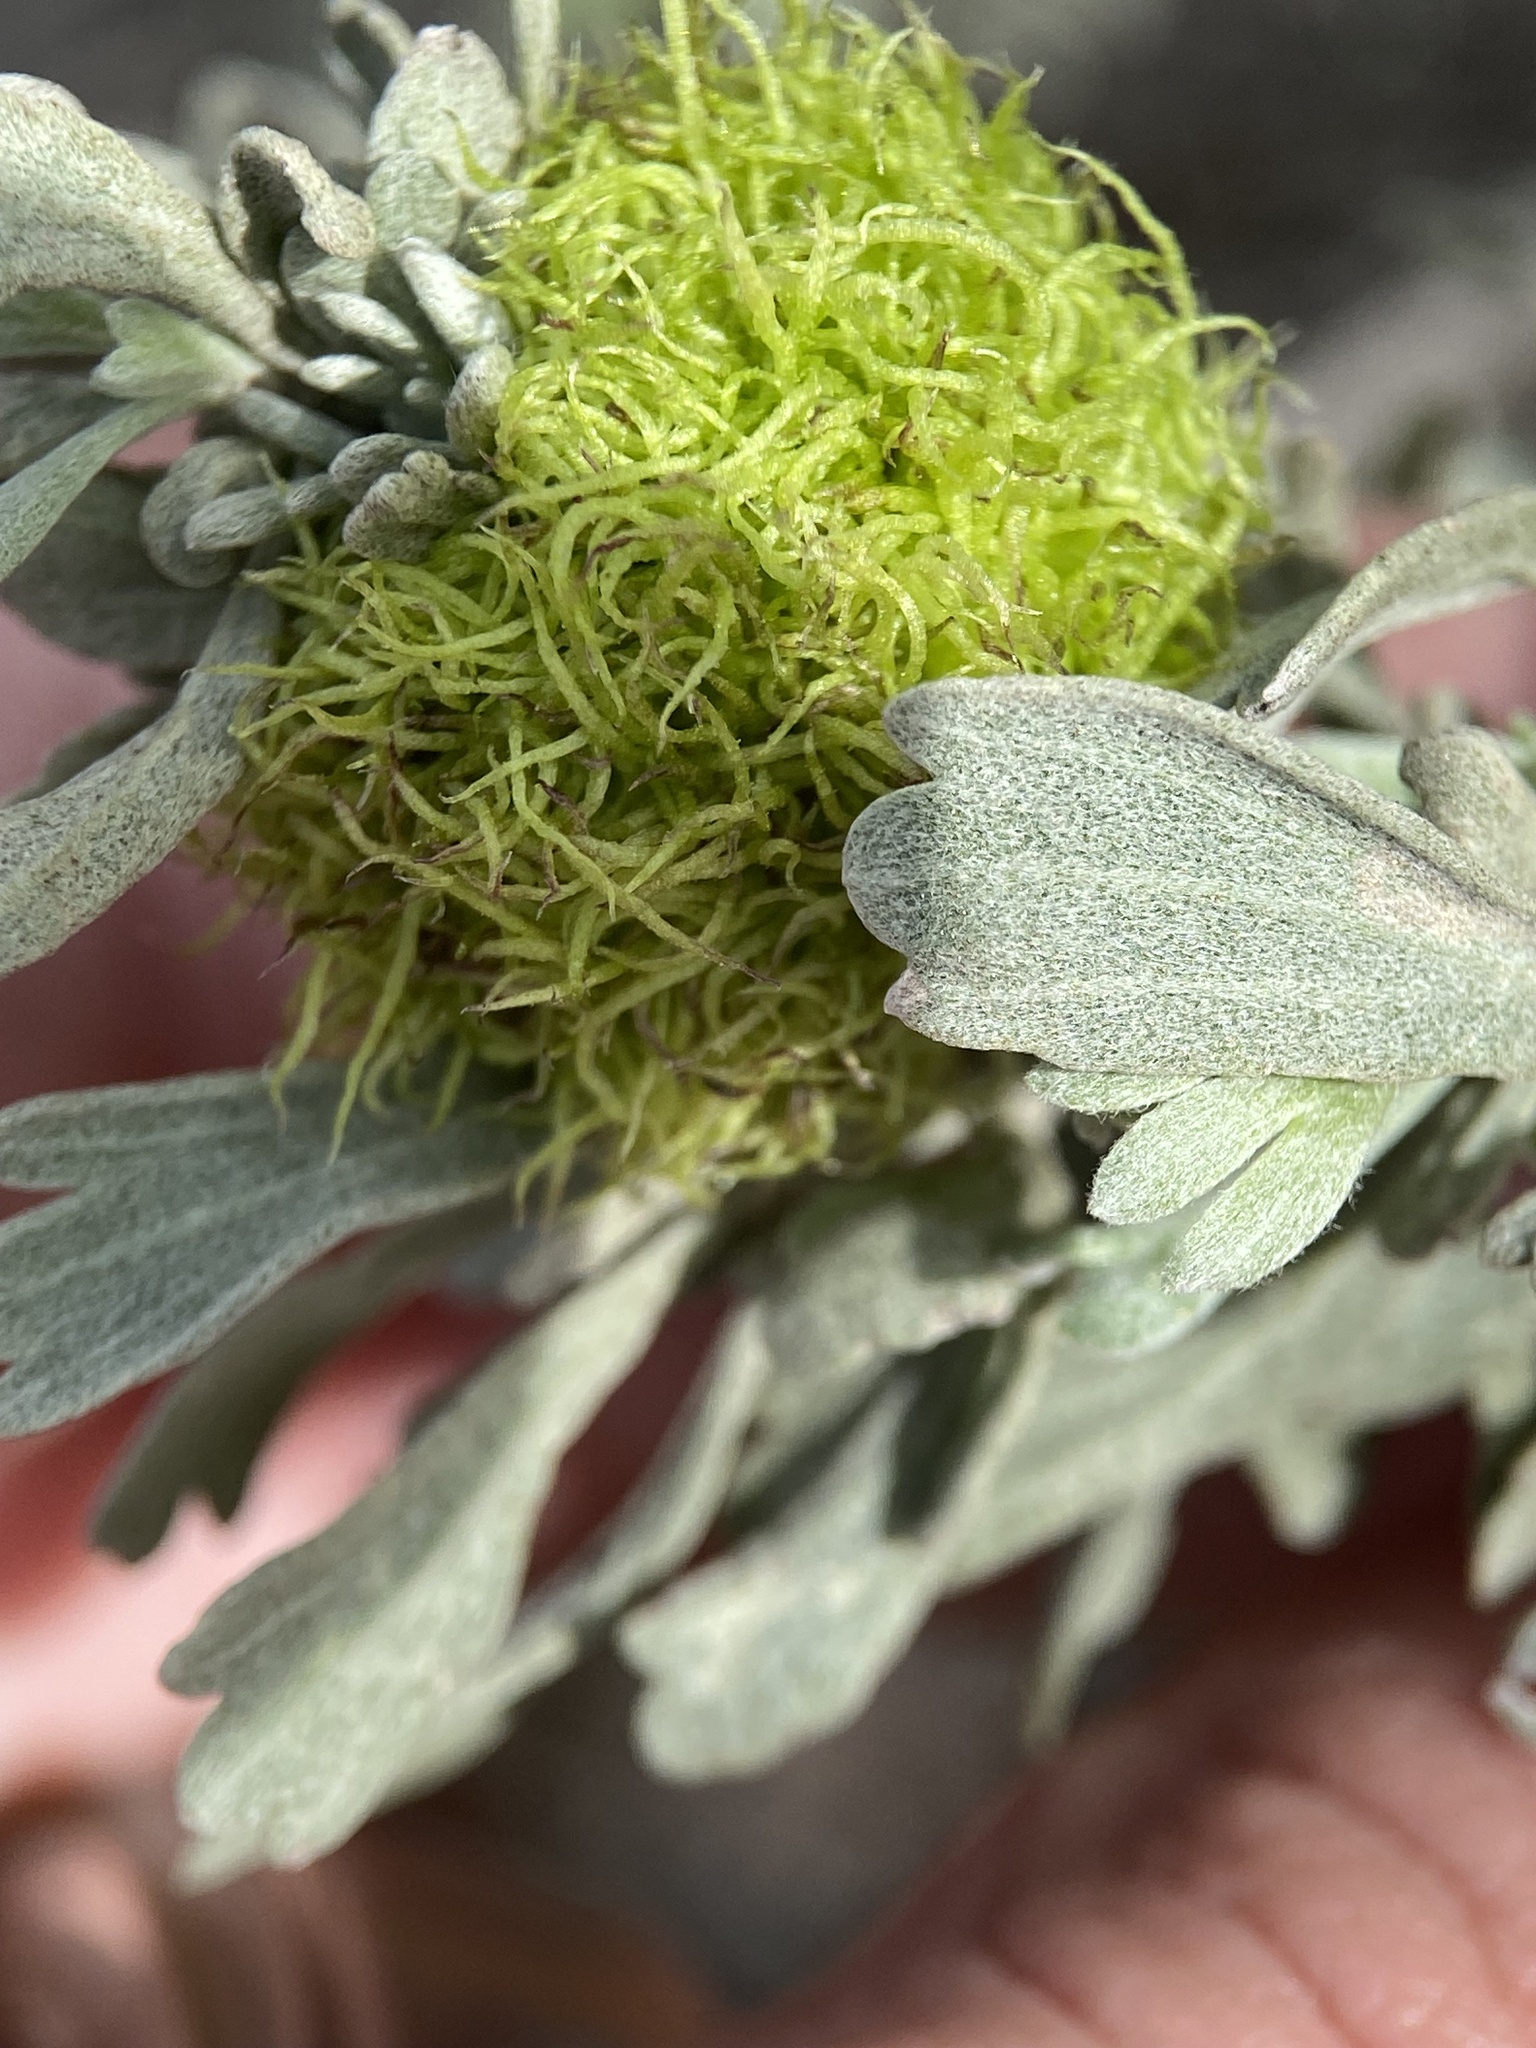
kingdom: Animalia
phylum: Arthropoda
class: Insecta
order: Diptera
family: Cecidomyiidae
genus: Rhopalomyia
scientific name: Rhopalomyia medusa
